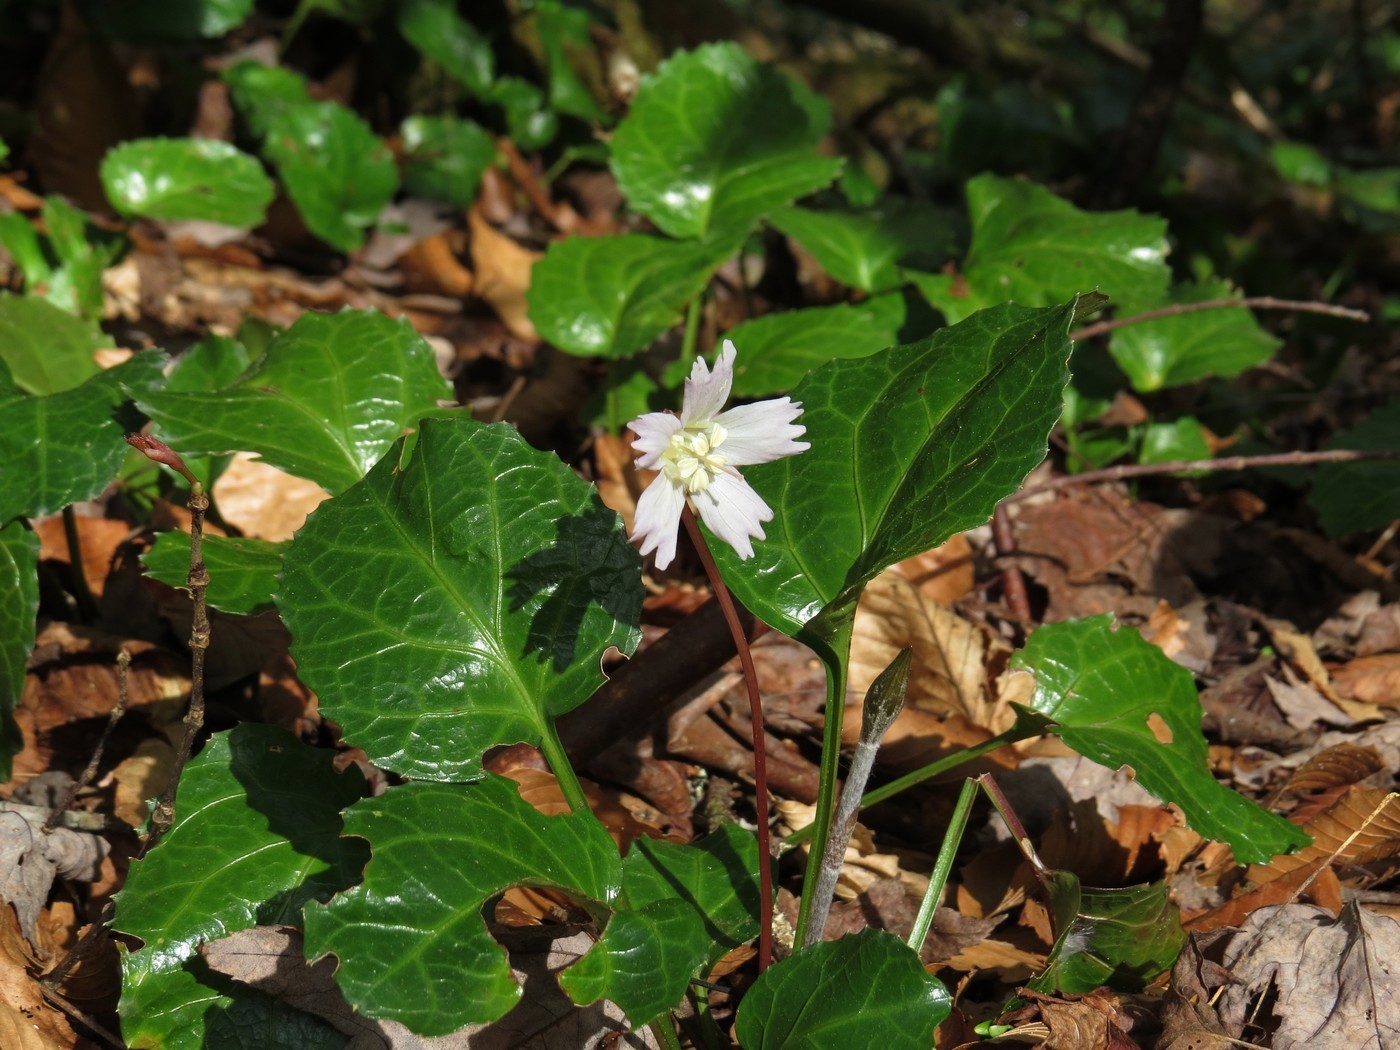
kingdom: Plantae
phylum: Tracheophyta
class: Magnoliopsida
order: Ericales
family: Diapensiaceae
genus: Shortia
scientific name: Shortia galacifolia
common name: Shortia
